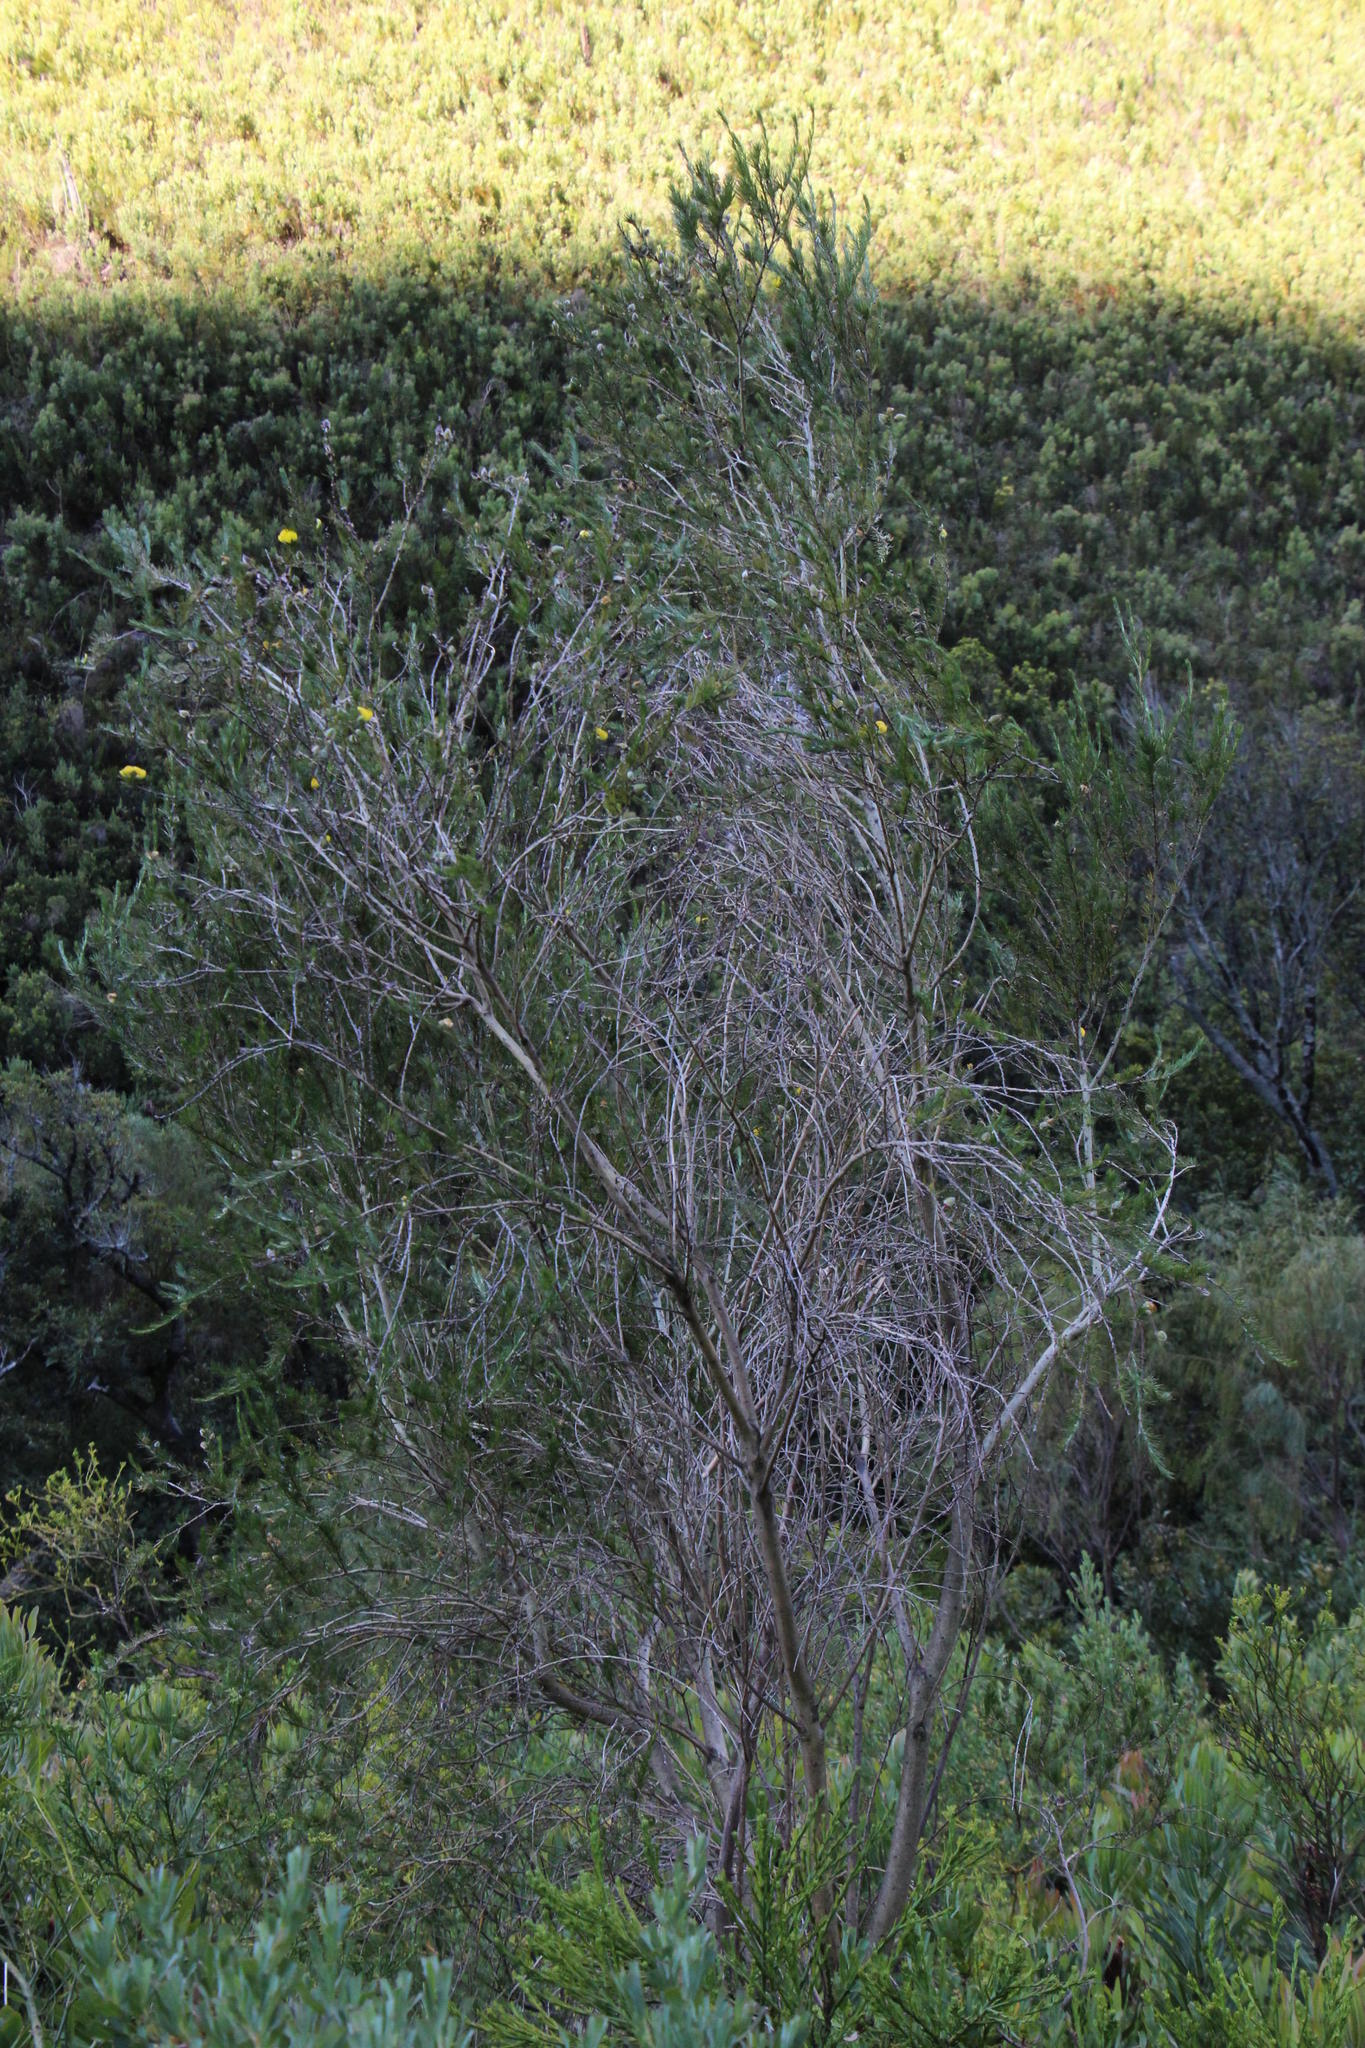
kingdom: Plantae
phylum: Tracheophyta
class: Magnoliopsida
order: Fabales
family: Fabaceae
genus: Aspalathus
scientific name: Aspalathus willdenowiana
